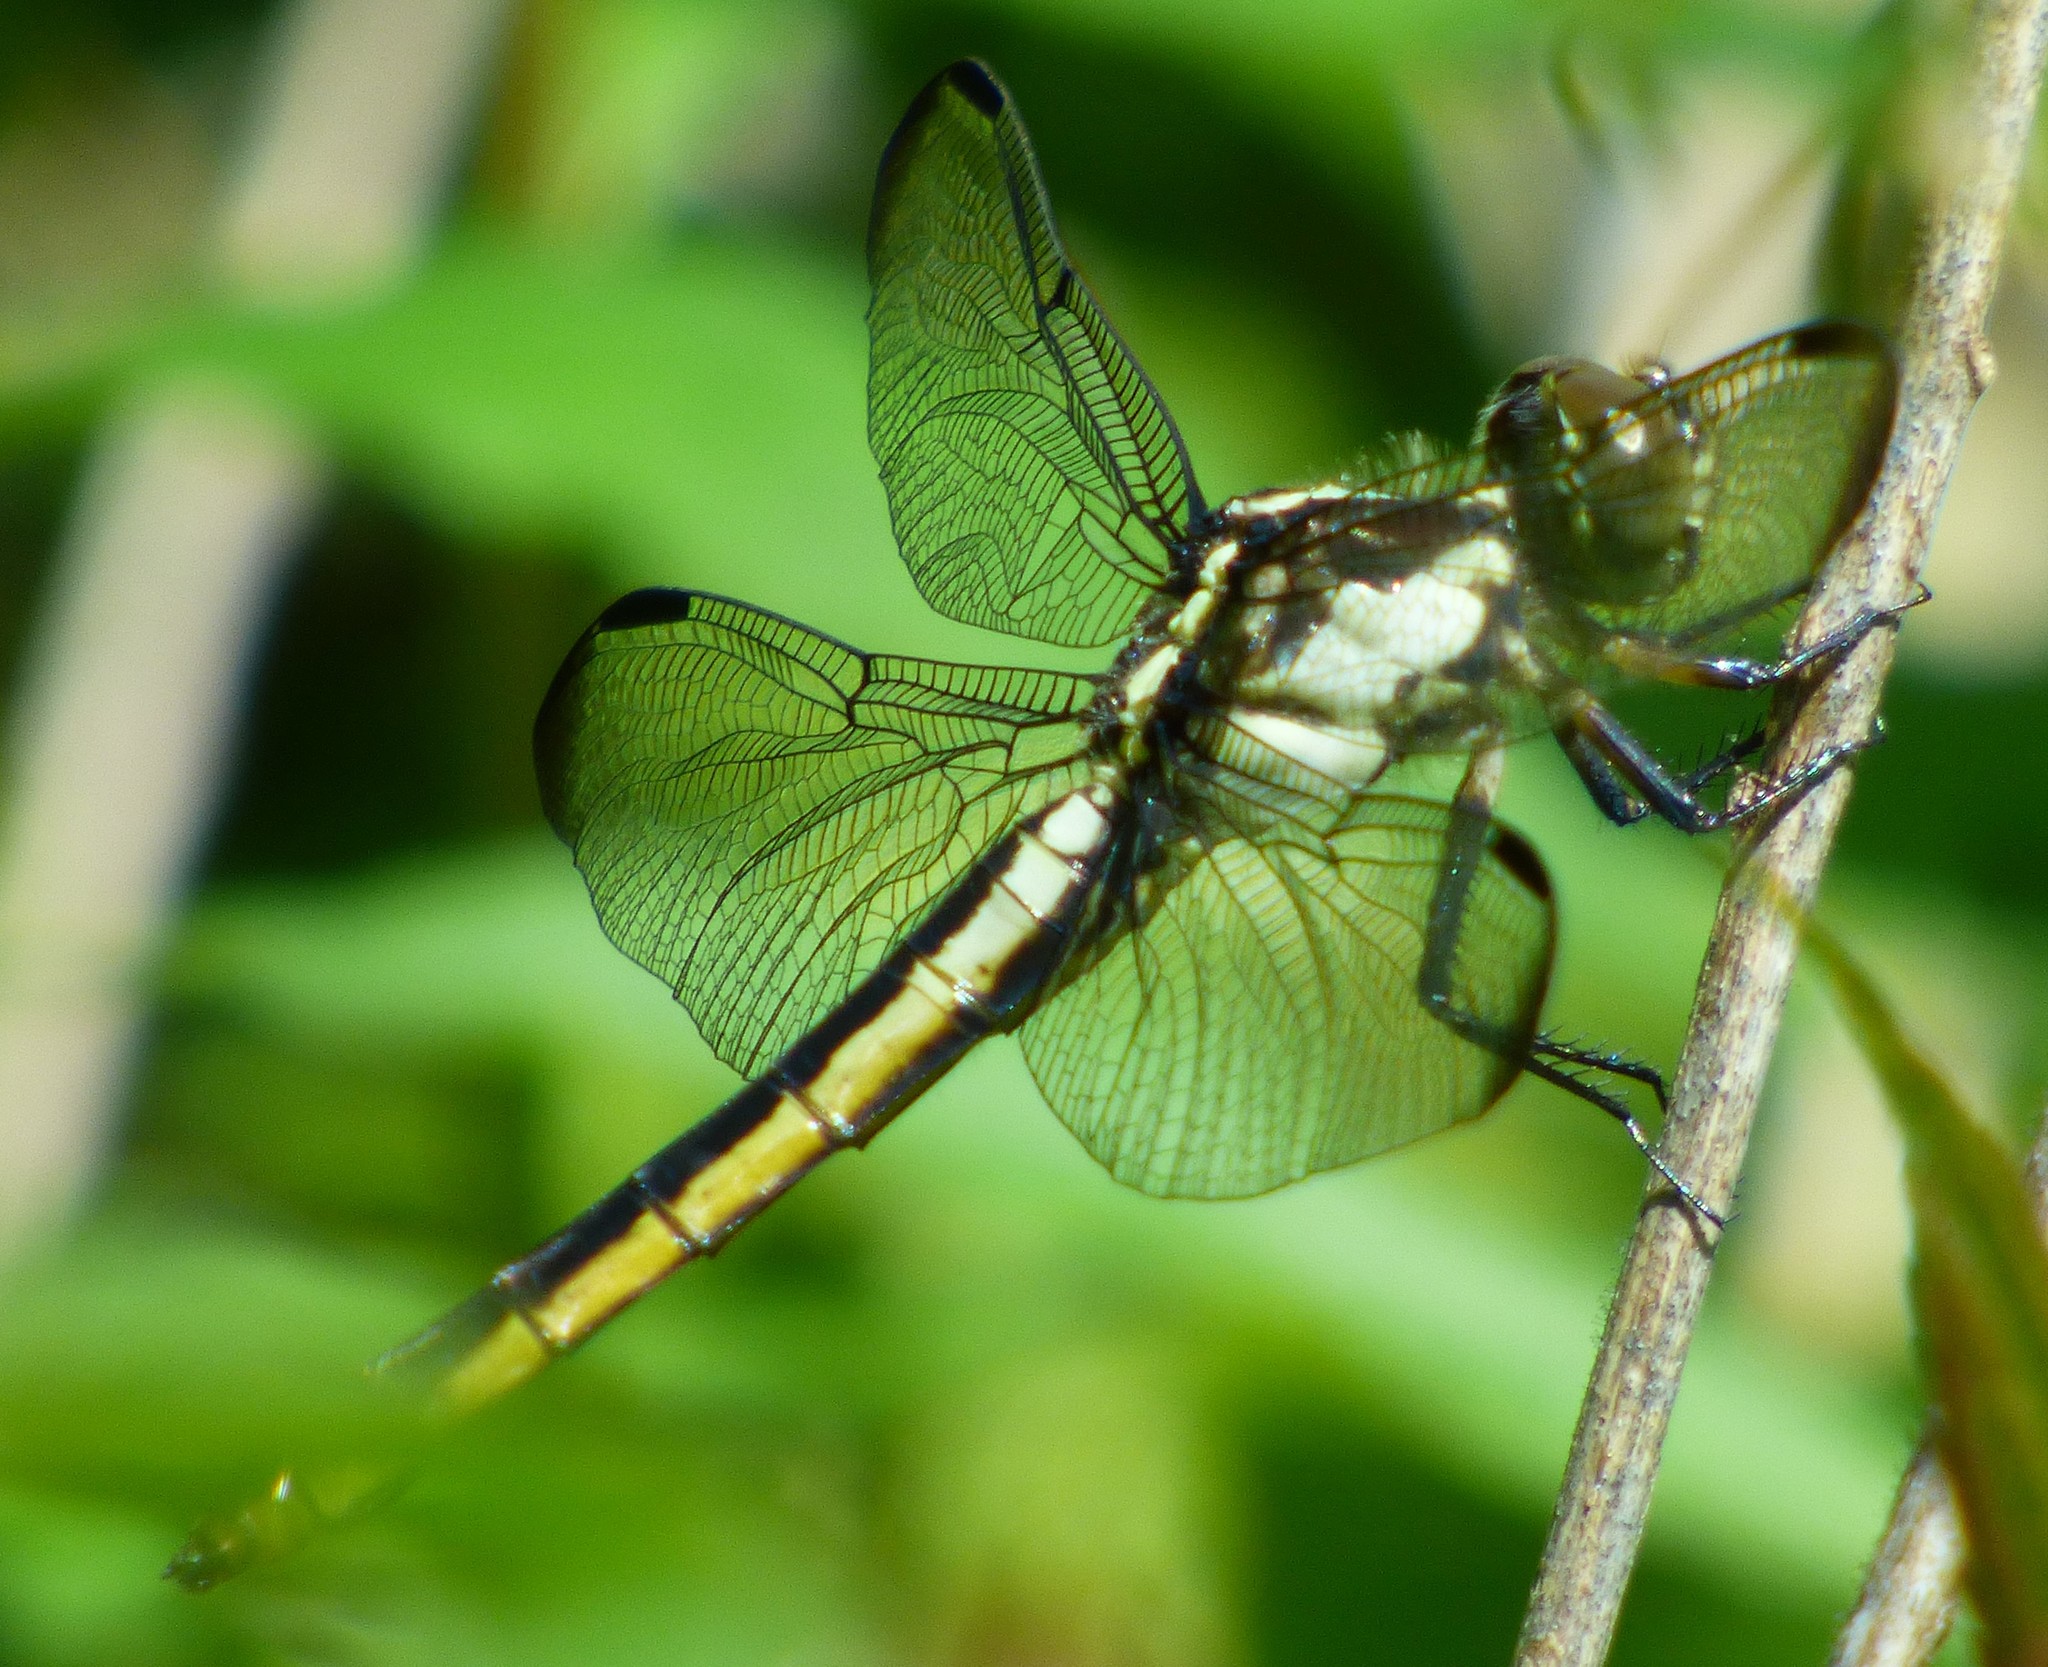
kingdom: Animalia
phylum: Arthropoda
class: Insecta
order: Odonata
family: Libellulidae
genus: Libellula
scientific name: Libellula vibrans
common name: Great blue skimmer
